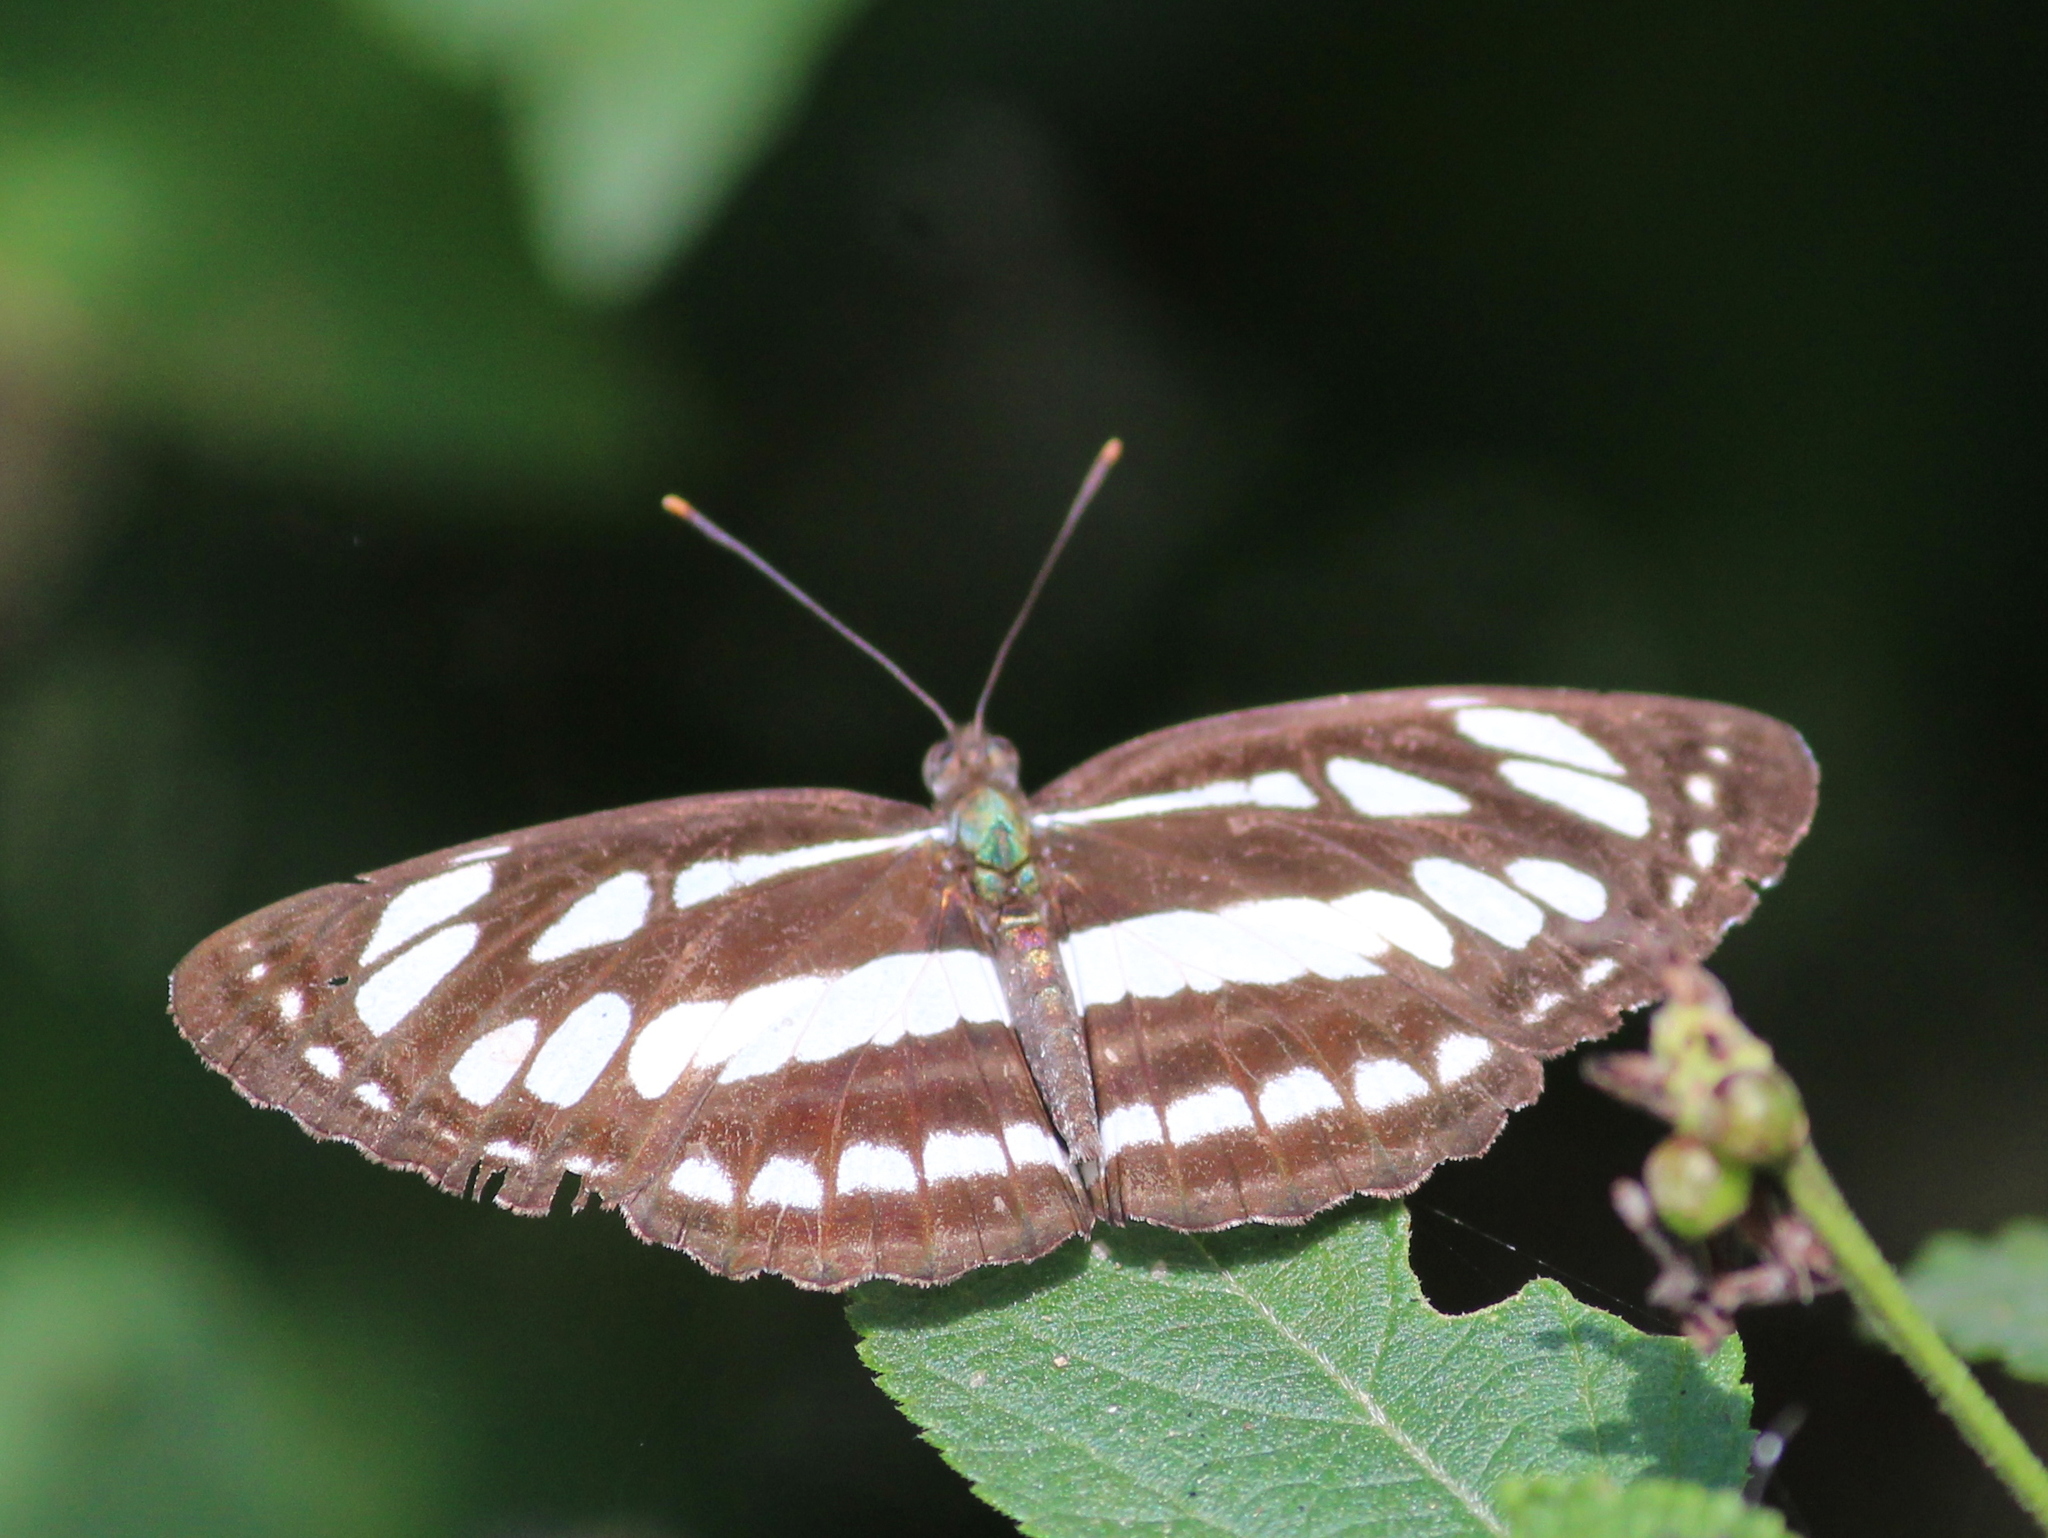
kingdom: Animalia
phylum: Arthropoda
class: Insecta
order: Lepidoptera
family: Nymphalidae
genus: Neptis
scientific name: Neptis hylas
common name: Common sailer
